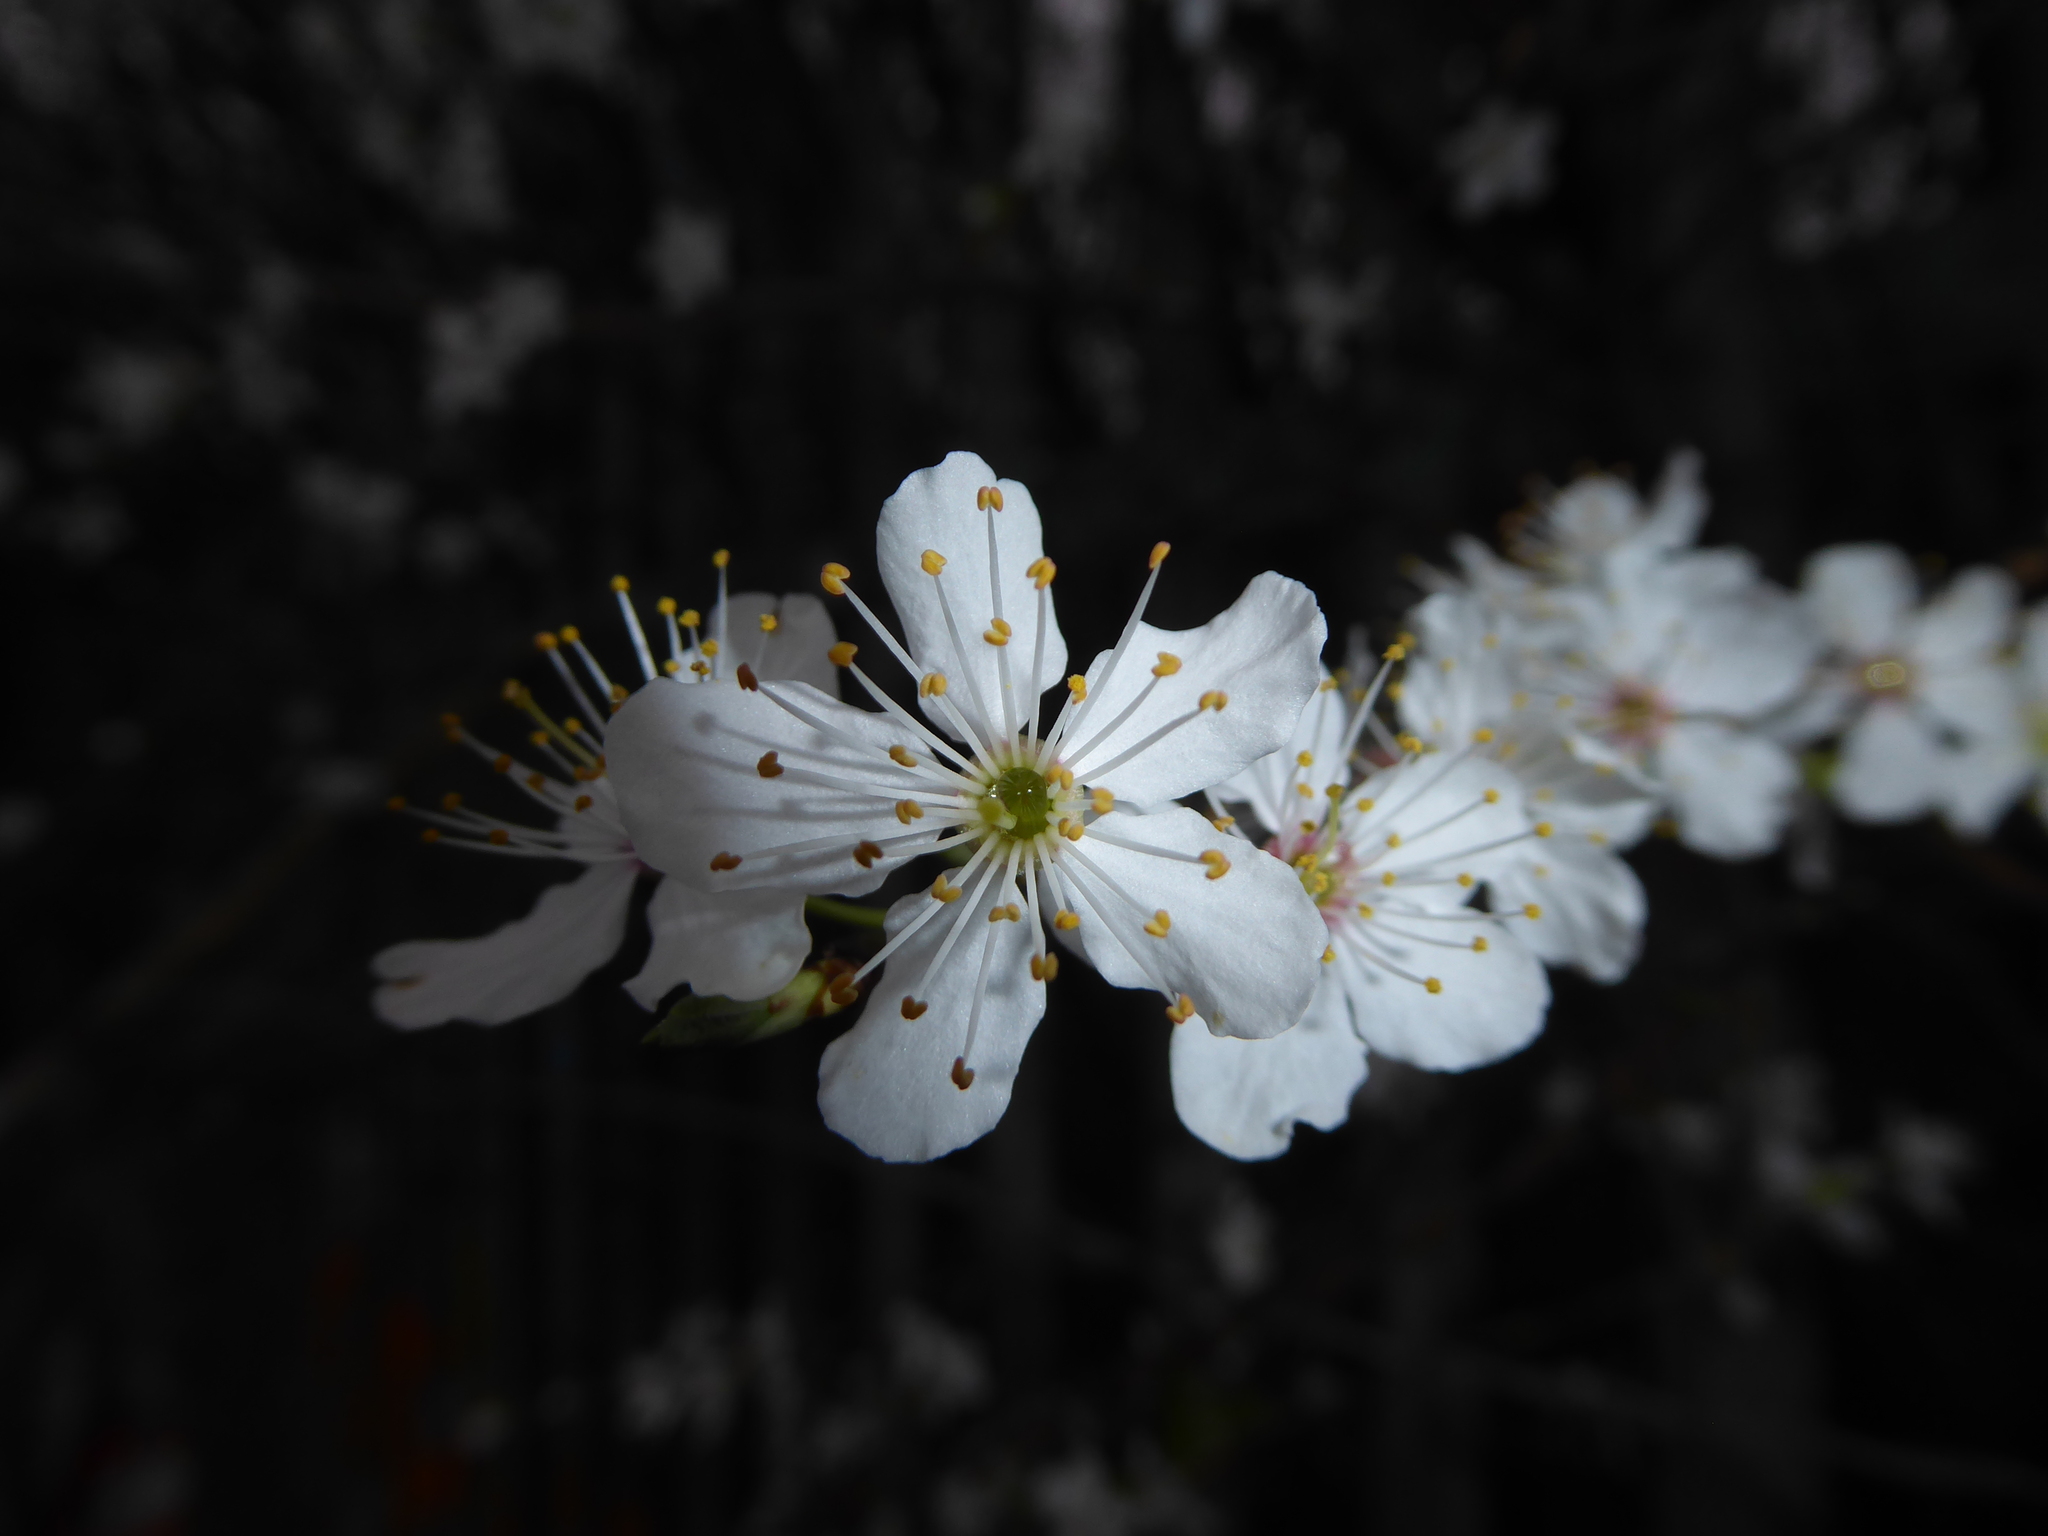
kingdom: Plantae
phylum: Tracheophyta
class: Magnoliopsida
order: Rosales
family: Rosaceae
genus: Prunus
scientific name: Prunus cerasifera
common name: Cherry plum
